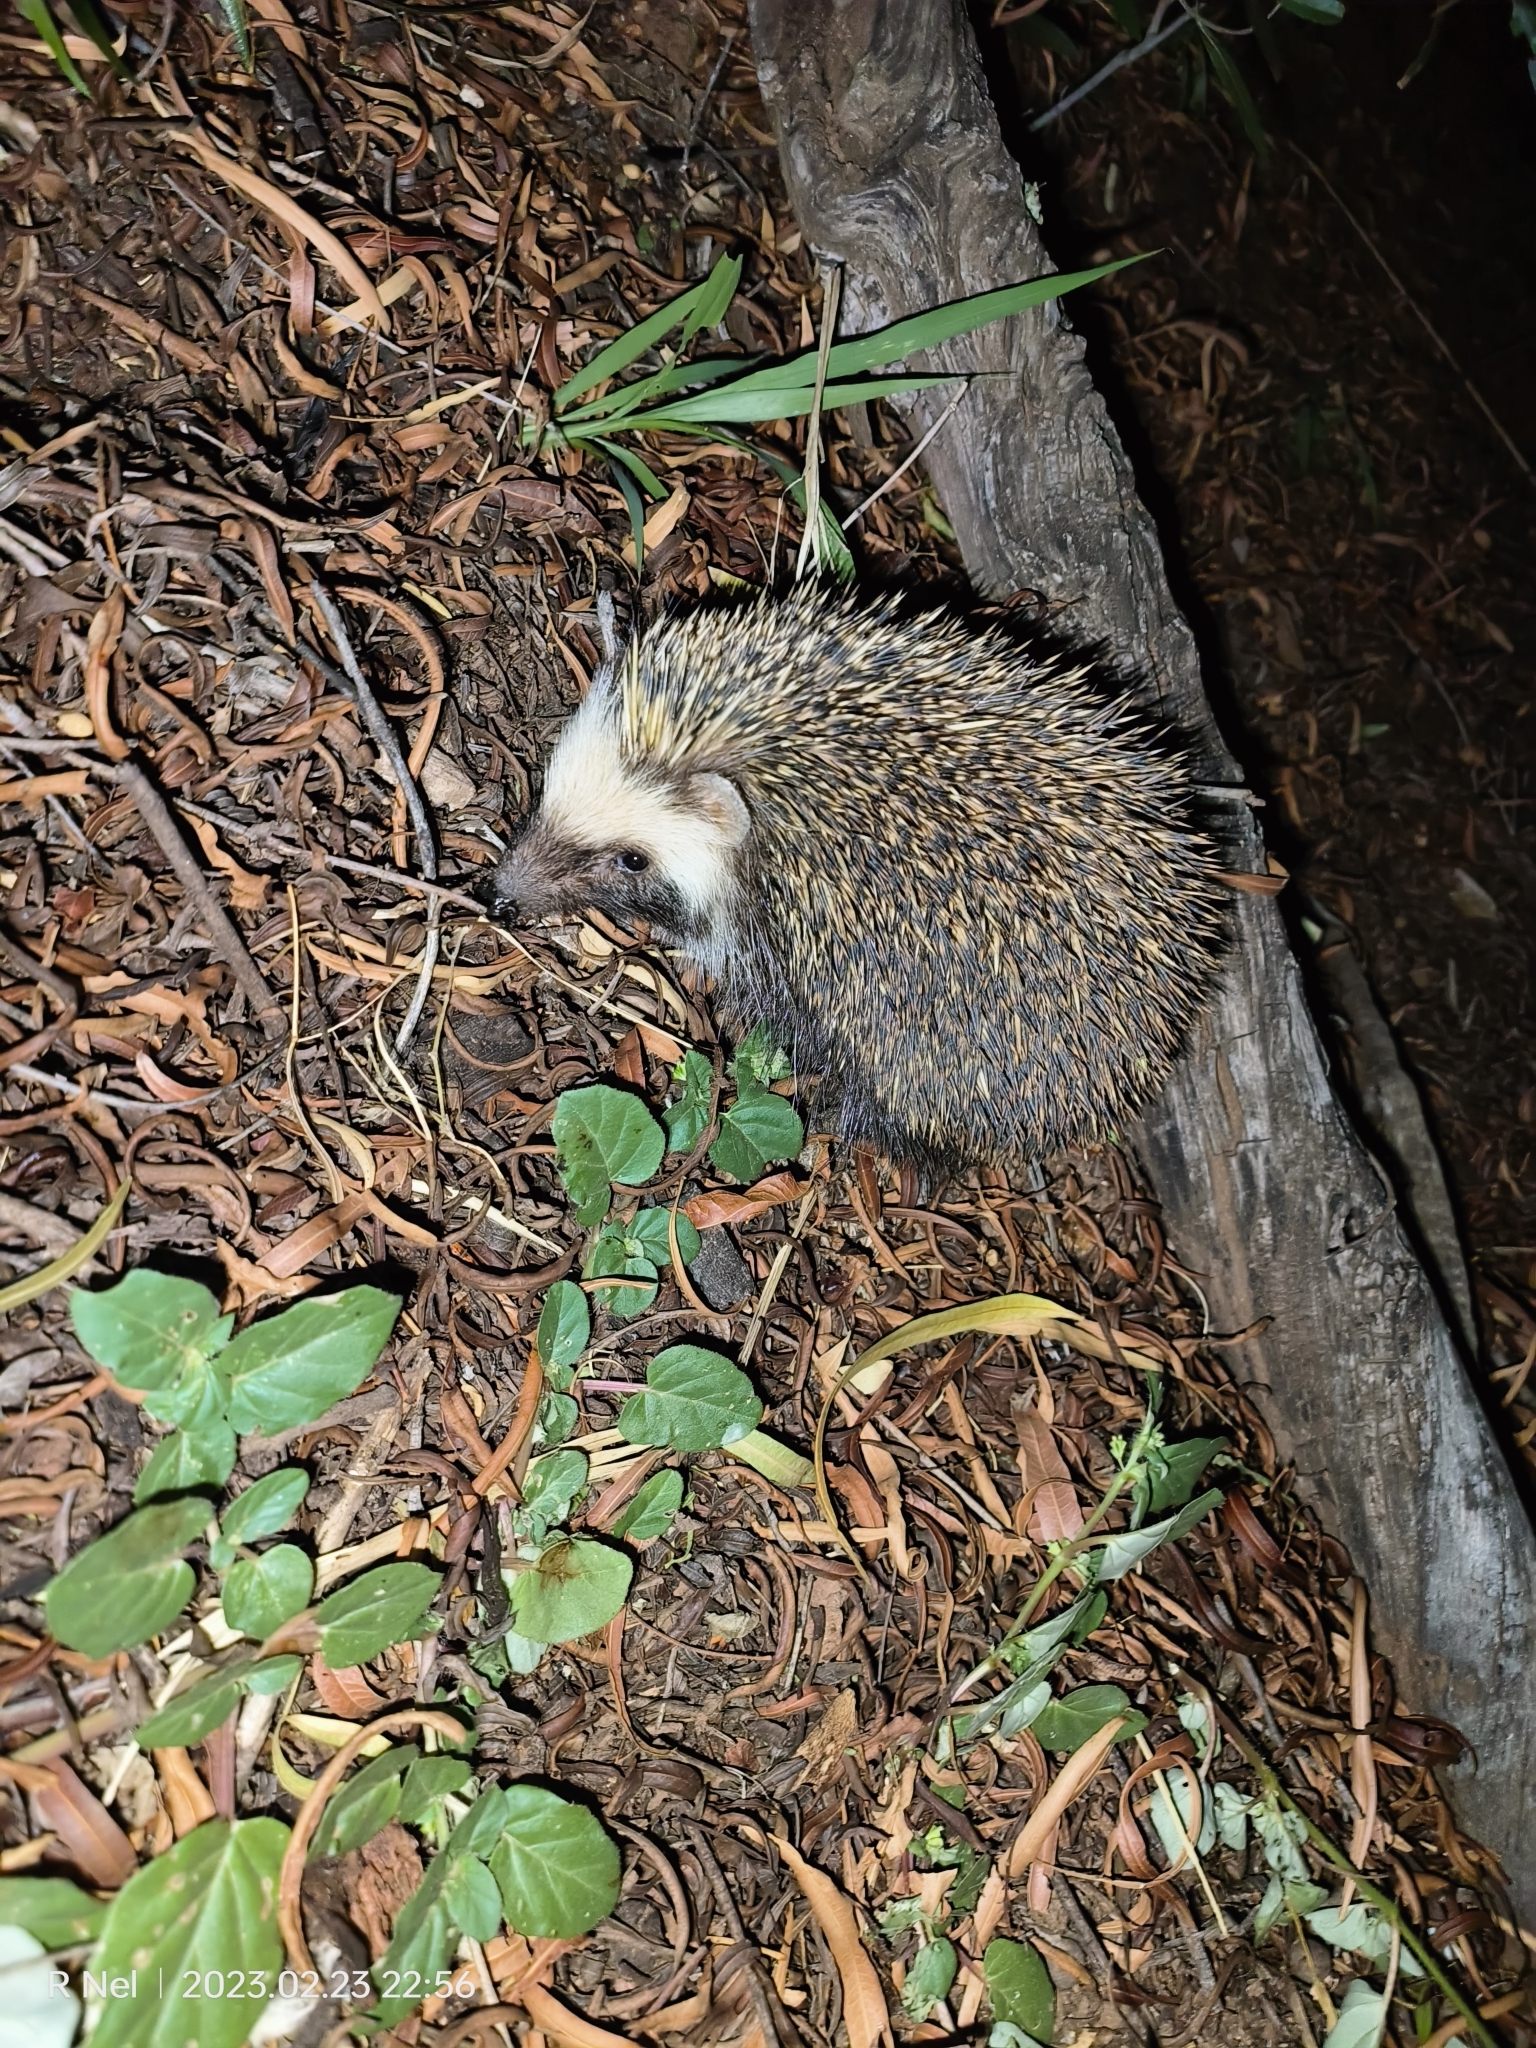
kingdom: Animalia
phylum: Chordata
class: Mammalia
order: Erinaceomorpha
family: Erinaceidae
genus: Atelerix
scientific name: Atelerix frontalis
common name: Southern african hedgehog
